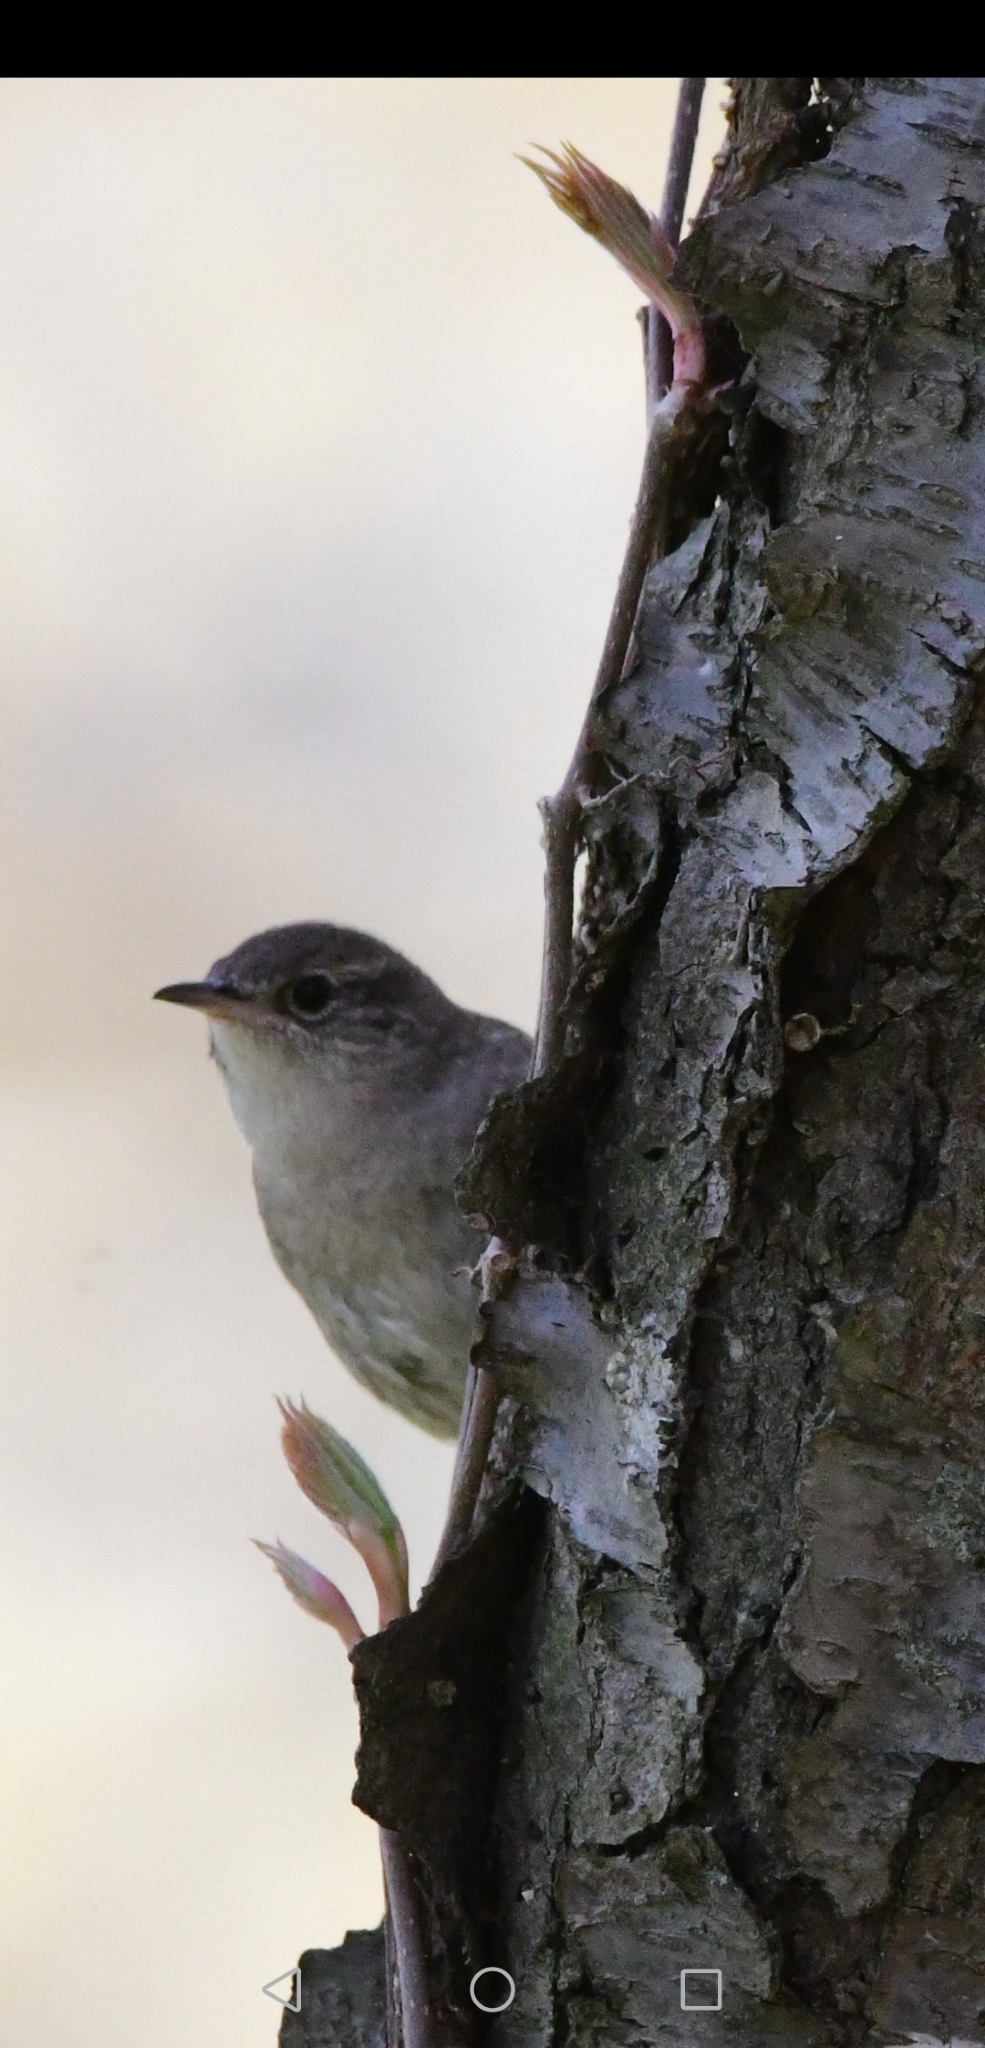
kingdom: Animalia
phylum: Chordata
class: Aves
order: Passeriformes
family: Troglodytidae
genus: Troglodytes
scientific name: Troglodytes aedon
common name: House wren
